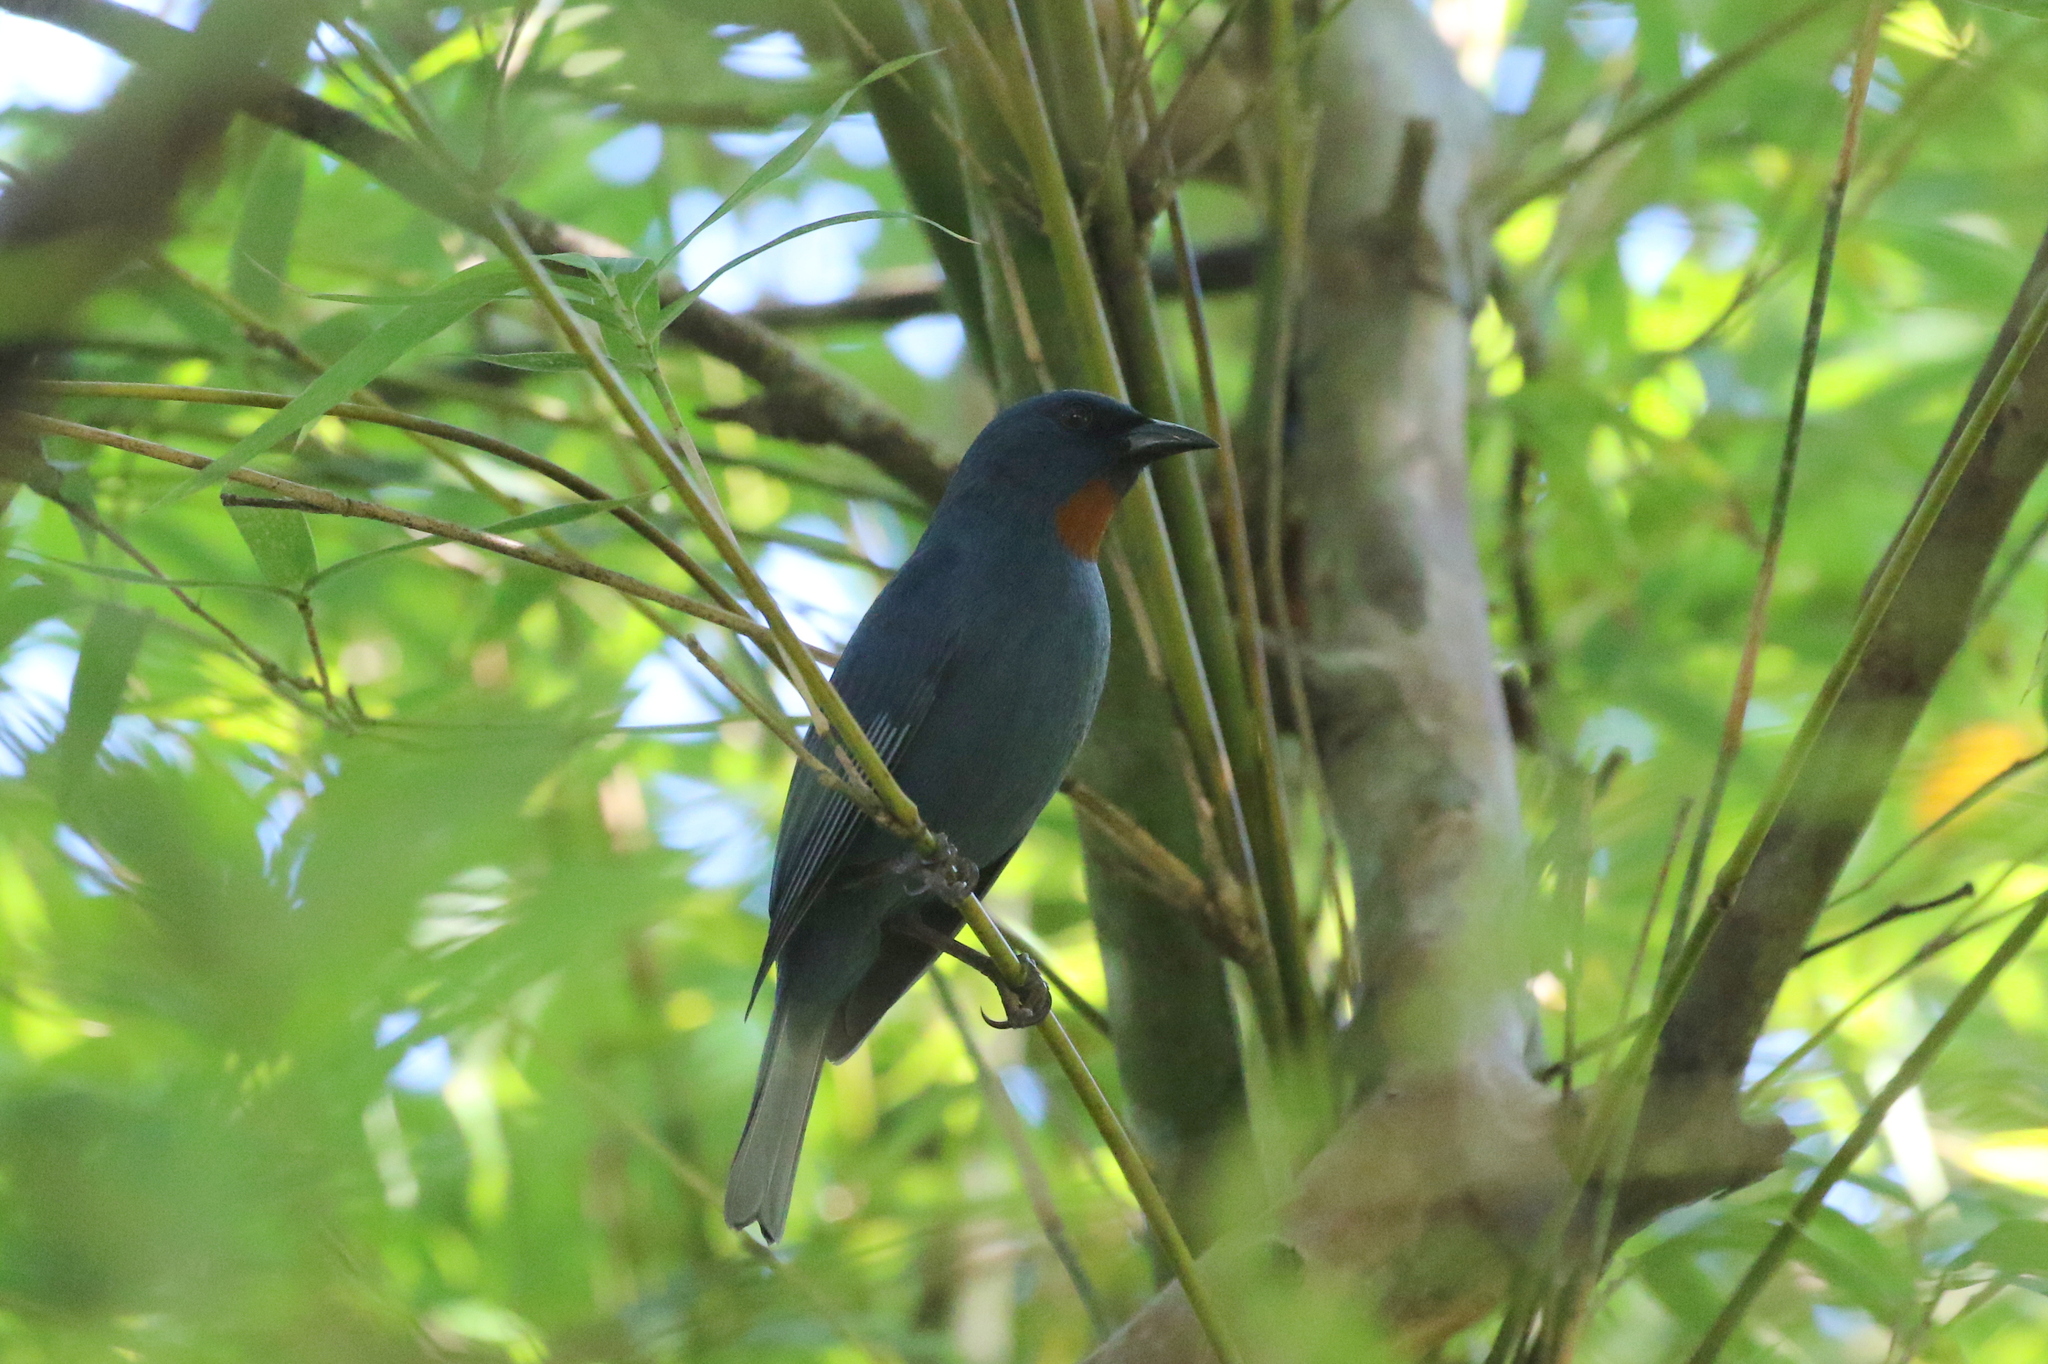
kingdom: Animalia
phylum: Chordata
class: Aves
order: Passeriformes
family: Thraupidae
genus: Euneornis
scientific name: Euneornis campestris
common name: Orangequit
